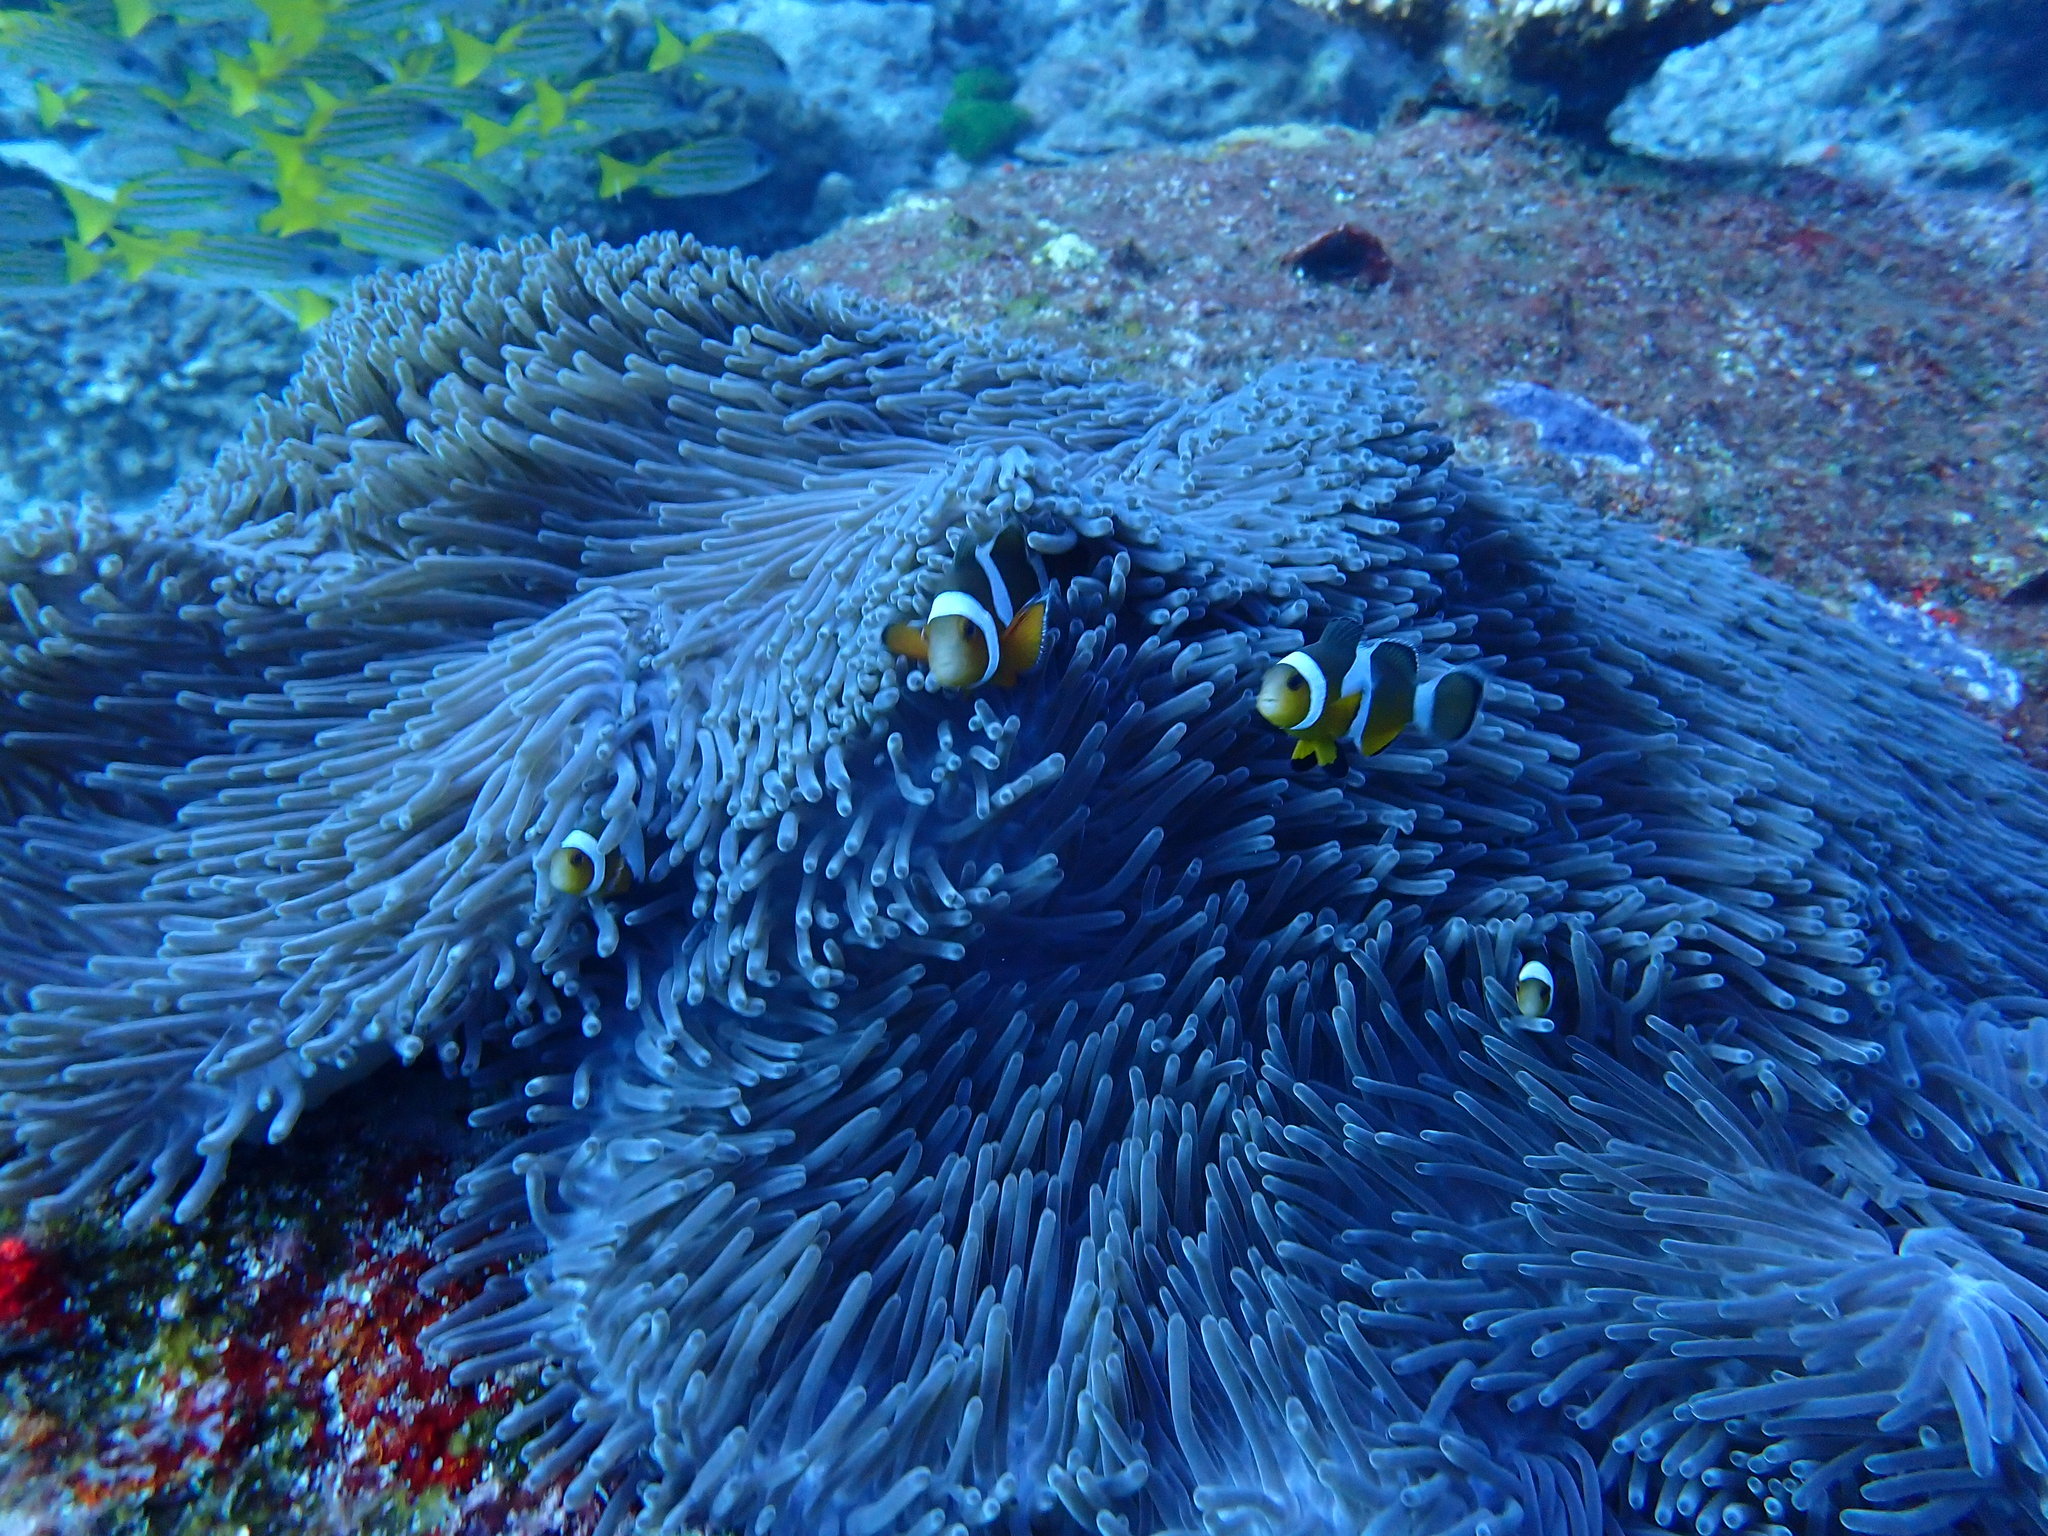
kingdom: Animalia
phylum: Cnidaria
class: Anthozoa
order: Actiniaria
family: Stichodactylidae
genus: Radianthus
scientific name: Radianthus magnifica
